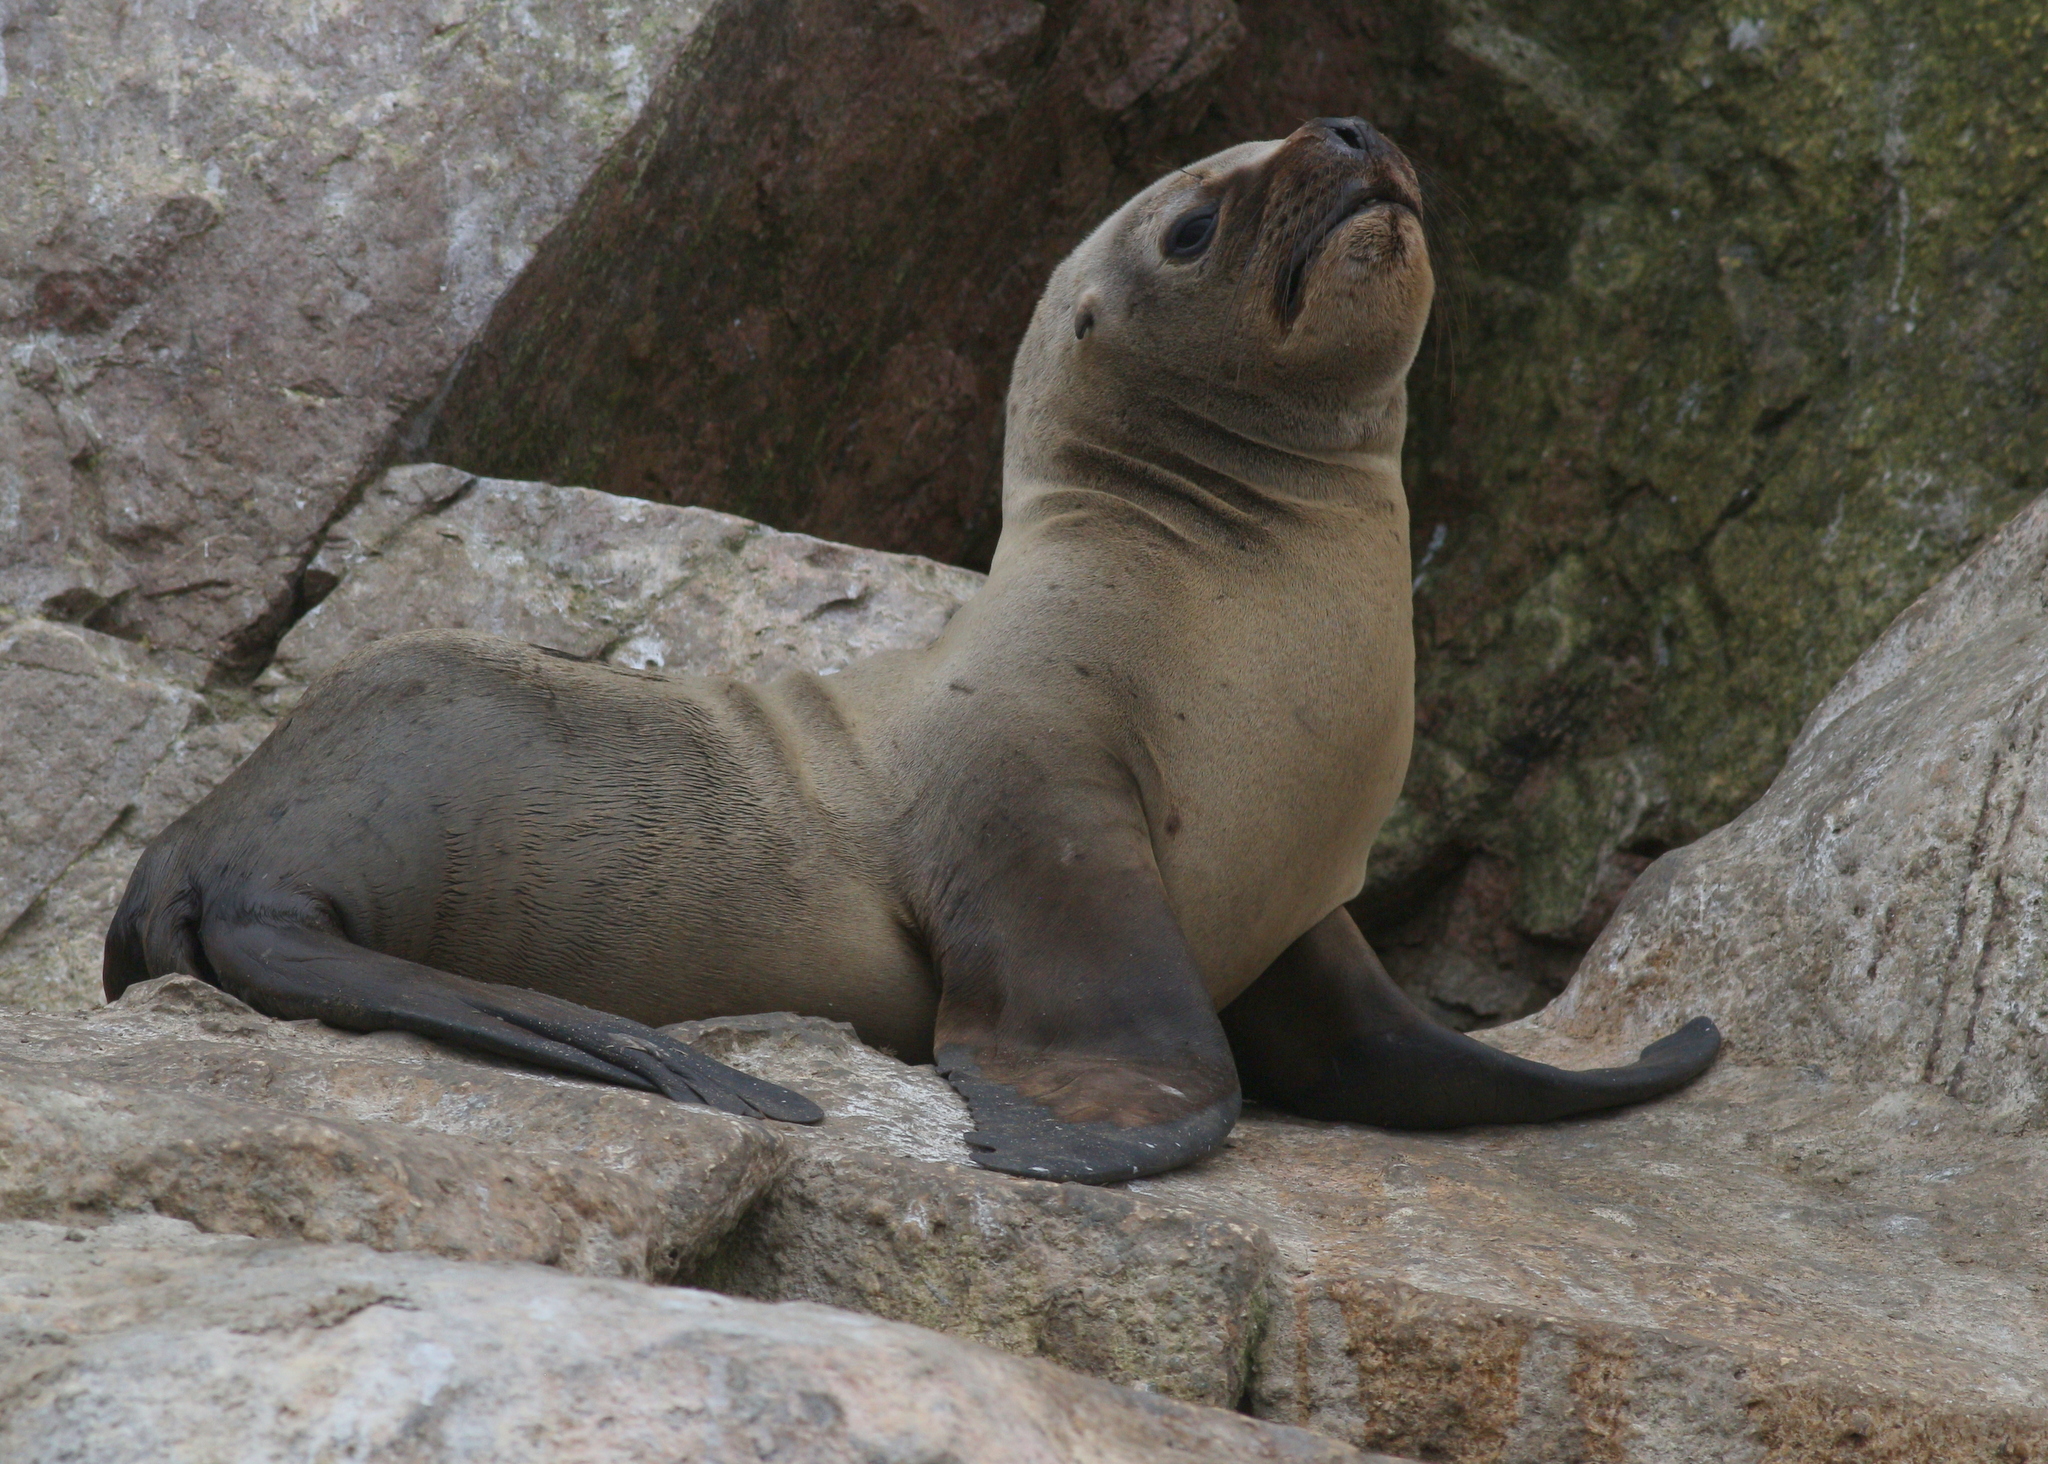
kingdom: Animalia
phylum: Chordata
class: Mammalia
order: Carnivora
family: Otariidae
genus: Otaria
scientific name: Otaria byronia
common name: South american sea lion
